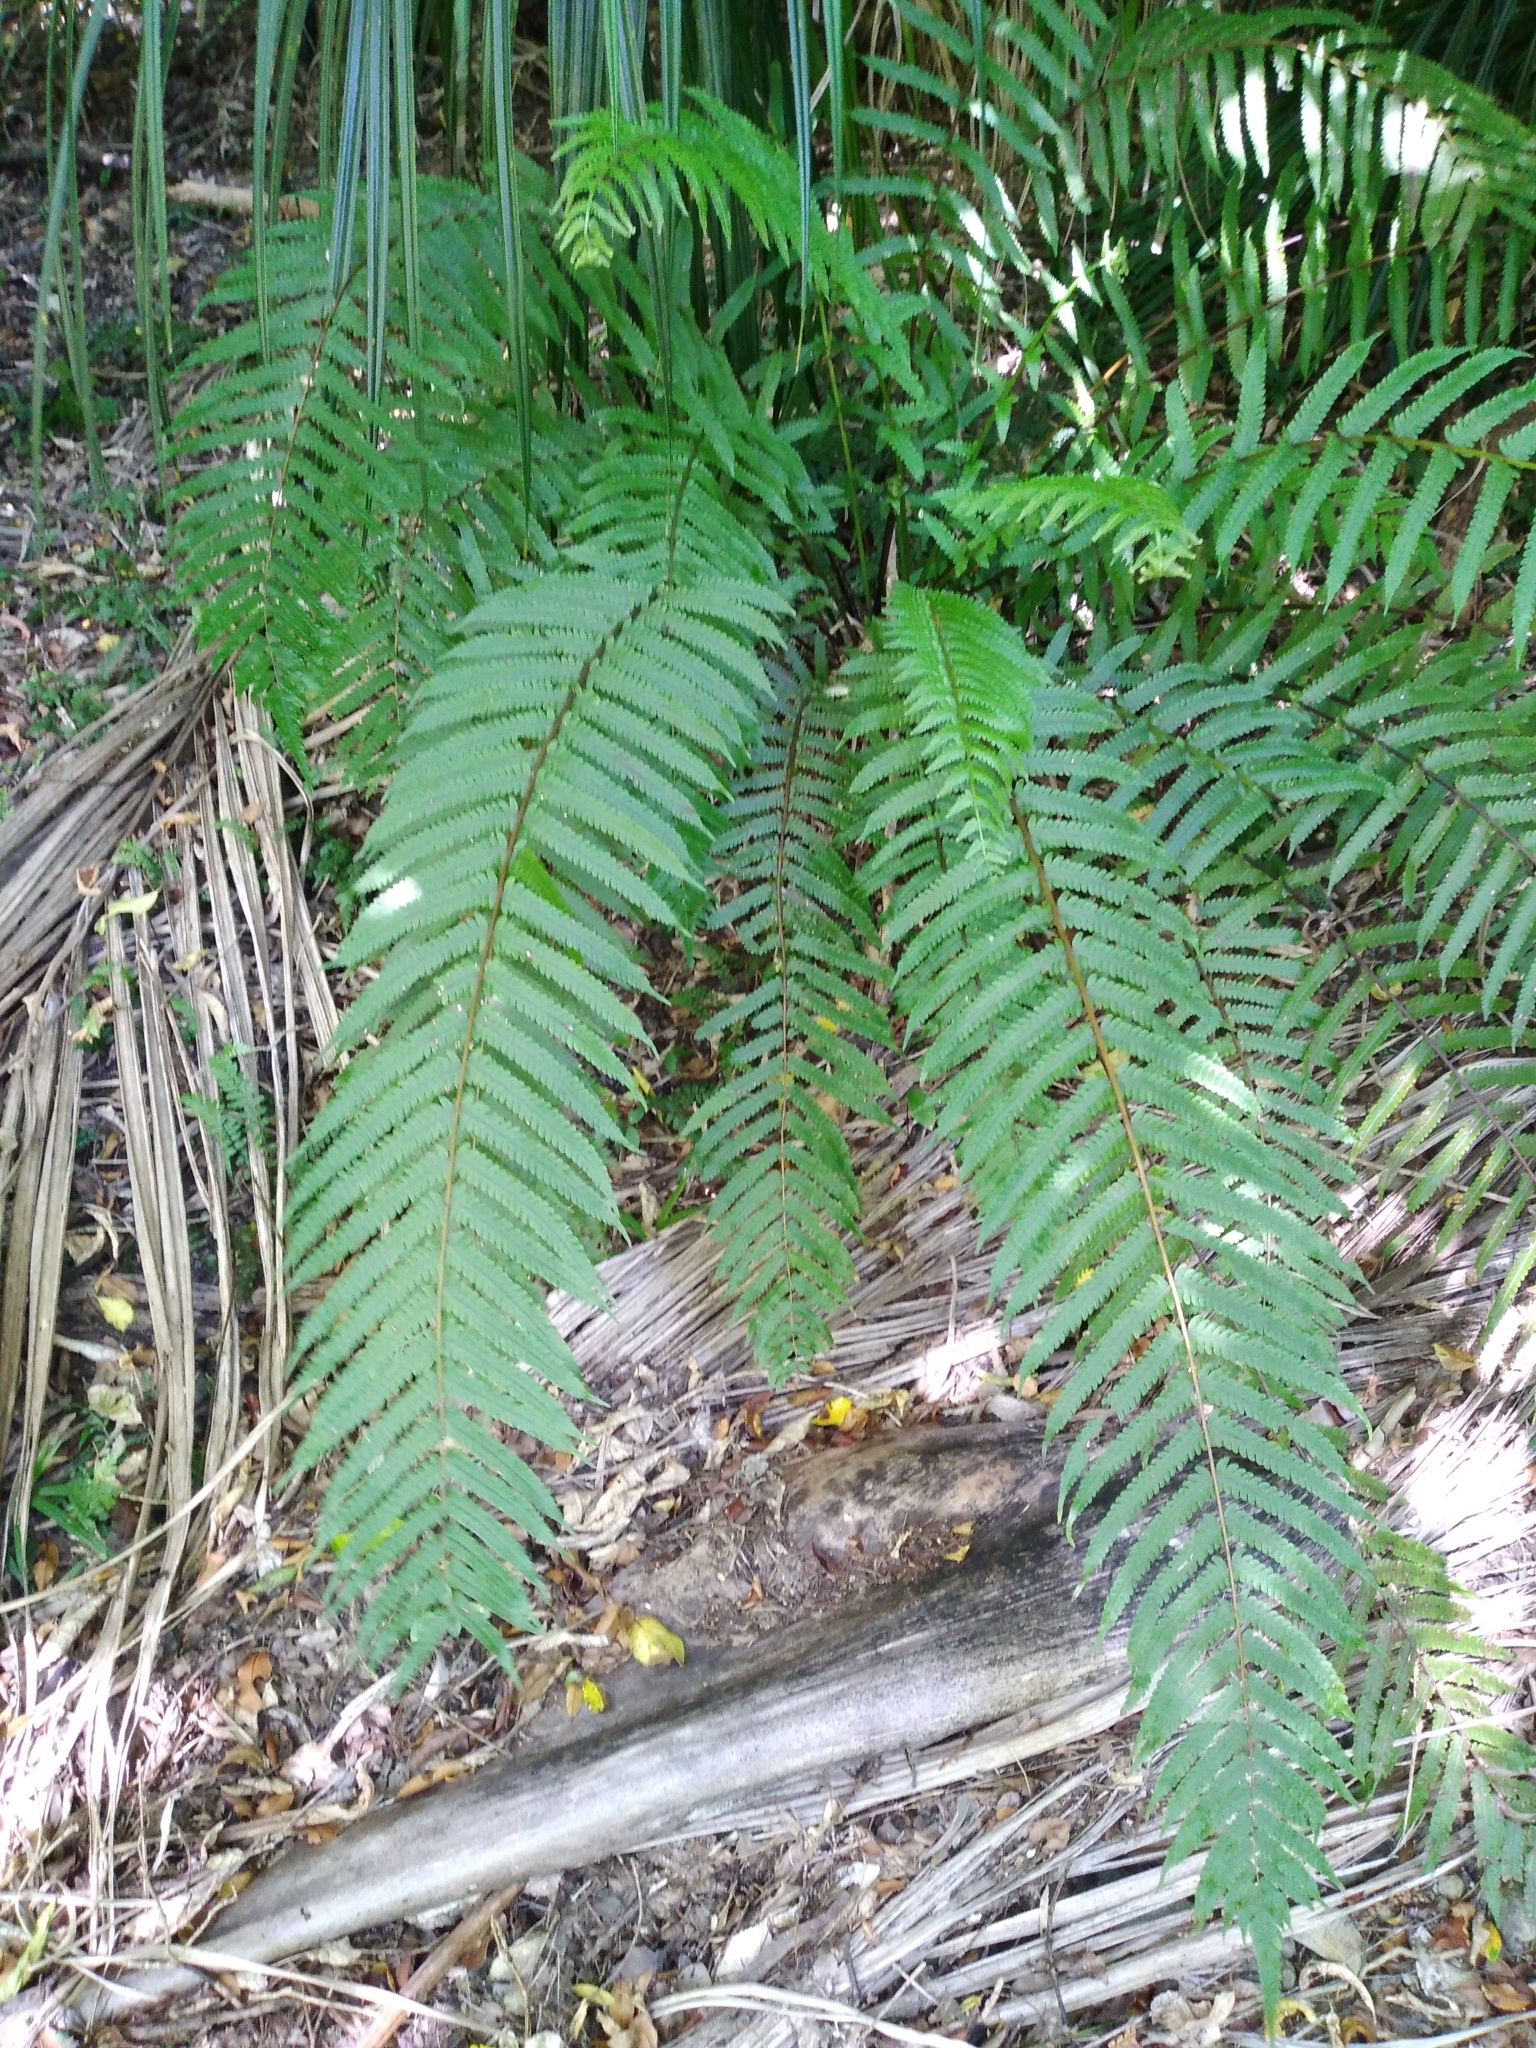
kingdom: Plantae
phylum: Tracheophyta
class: Polypodiopsida
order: Polypodiales
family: Thelypteridaceae
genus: Pakau
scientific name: Pakau pennigera
